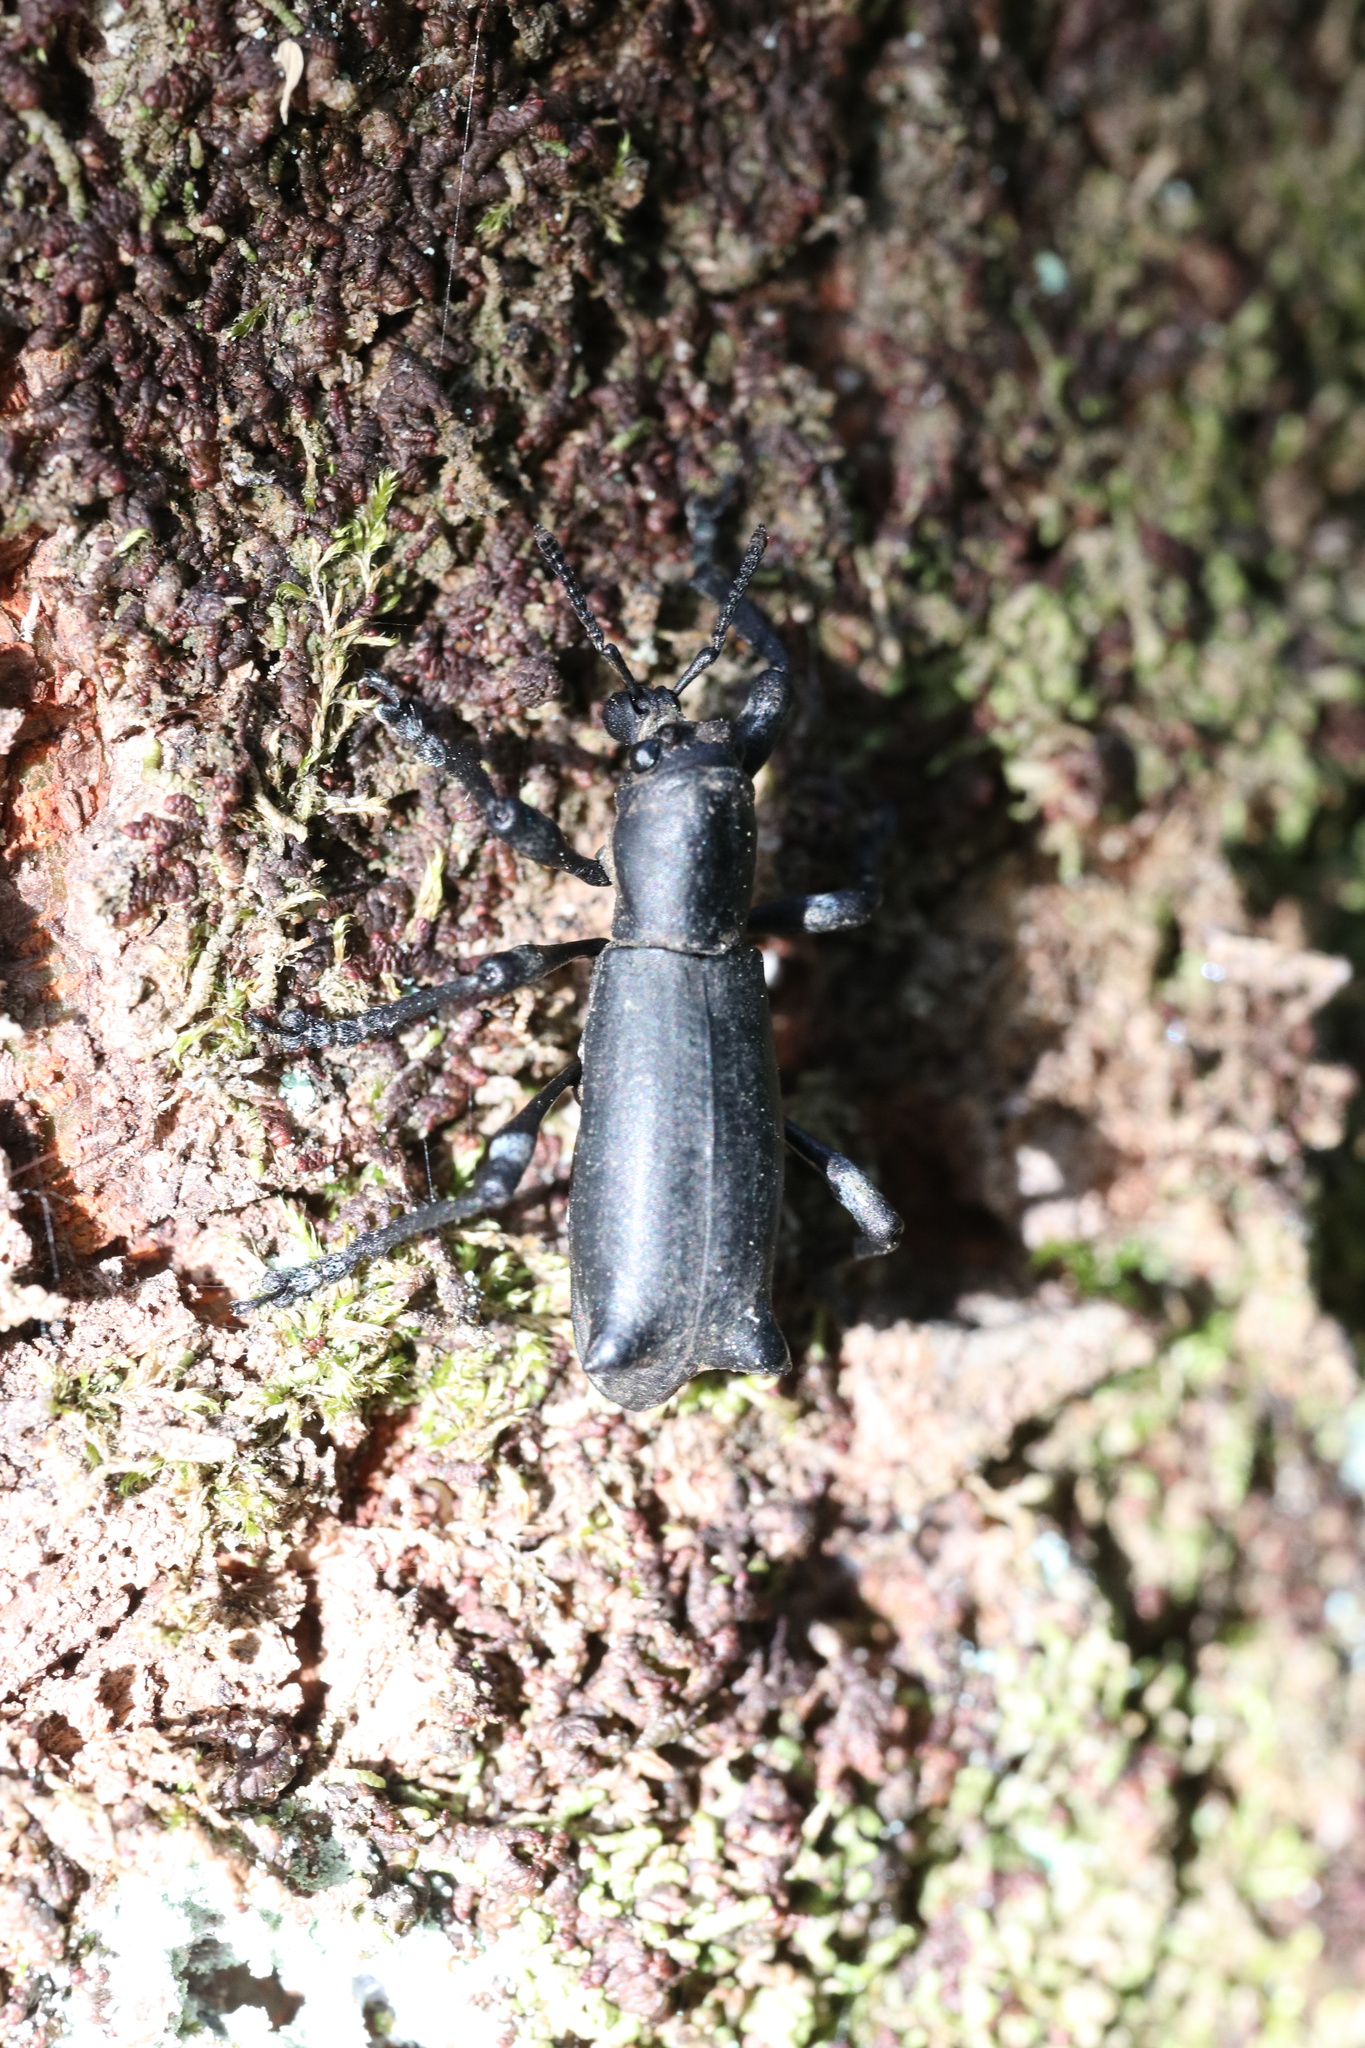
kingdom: Animalia
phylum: Arthropoda
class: Insecta
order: Coleoptera
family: Curculionidae
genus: Aegorhinus
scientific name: Aegorhinus
